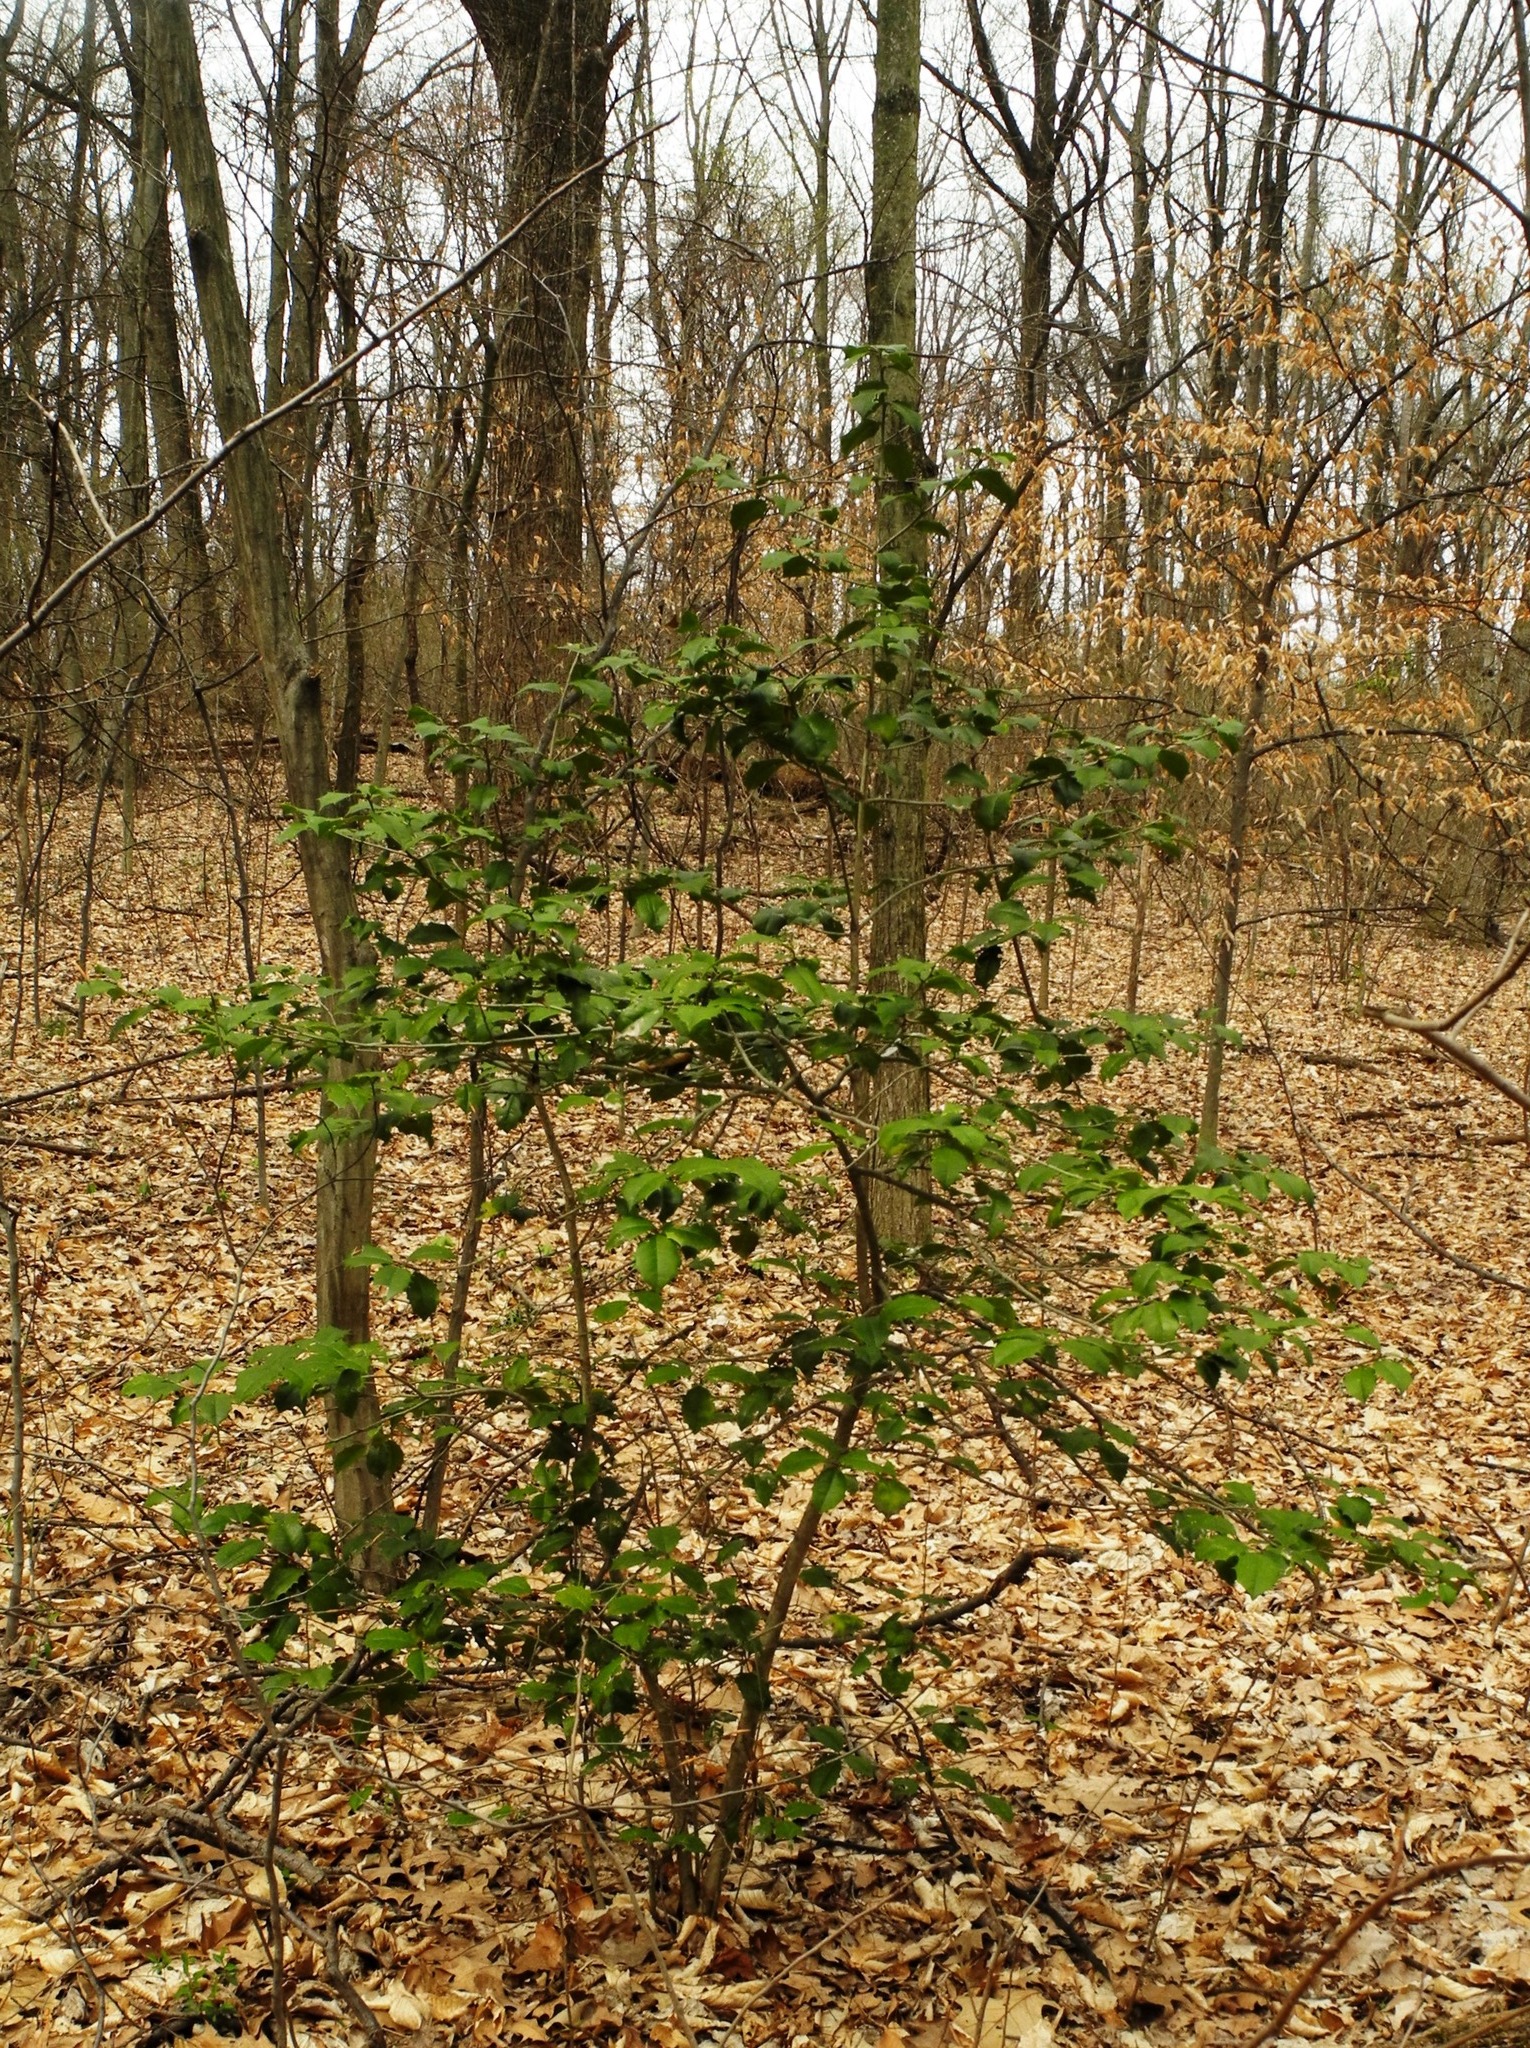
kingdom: Plantae
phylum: Tracheophyta
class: Magnoliopsida
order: Aquifoliales
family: Aquifoliaceae
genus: Ilex
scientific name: Ilex opaca
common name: American holly
